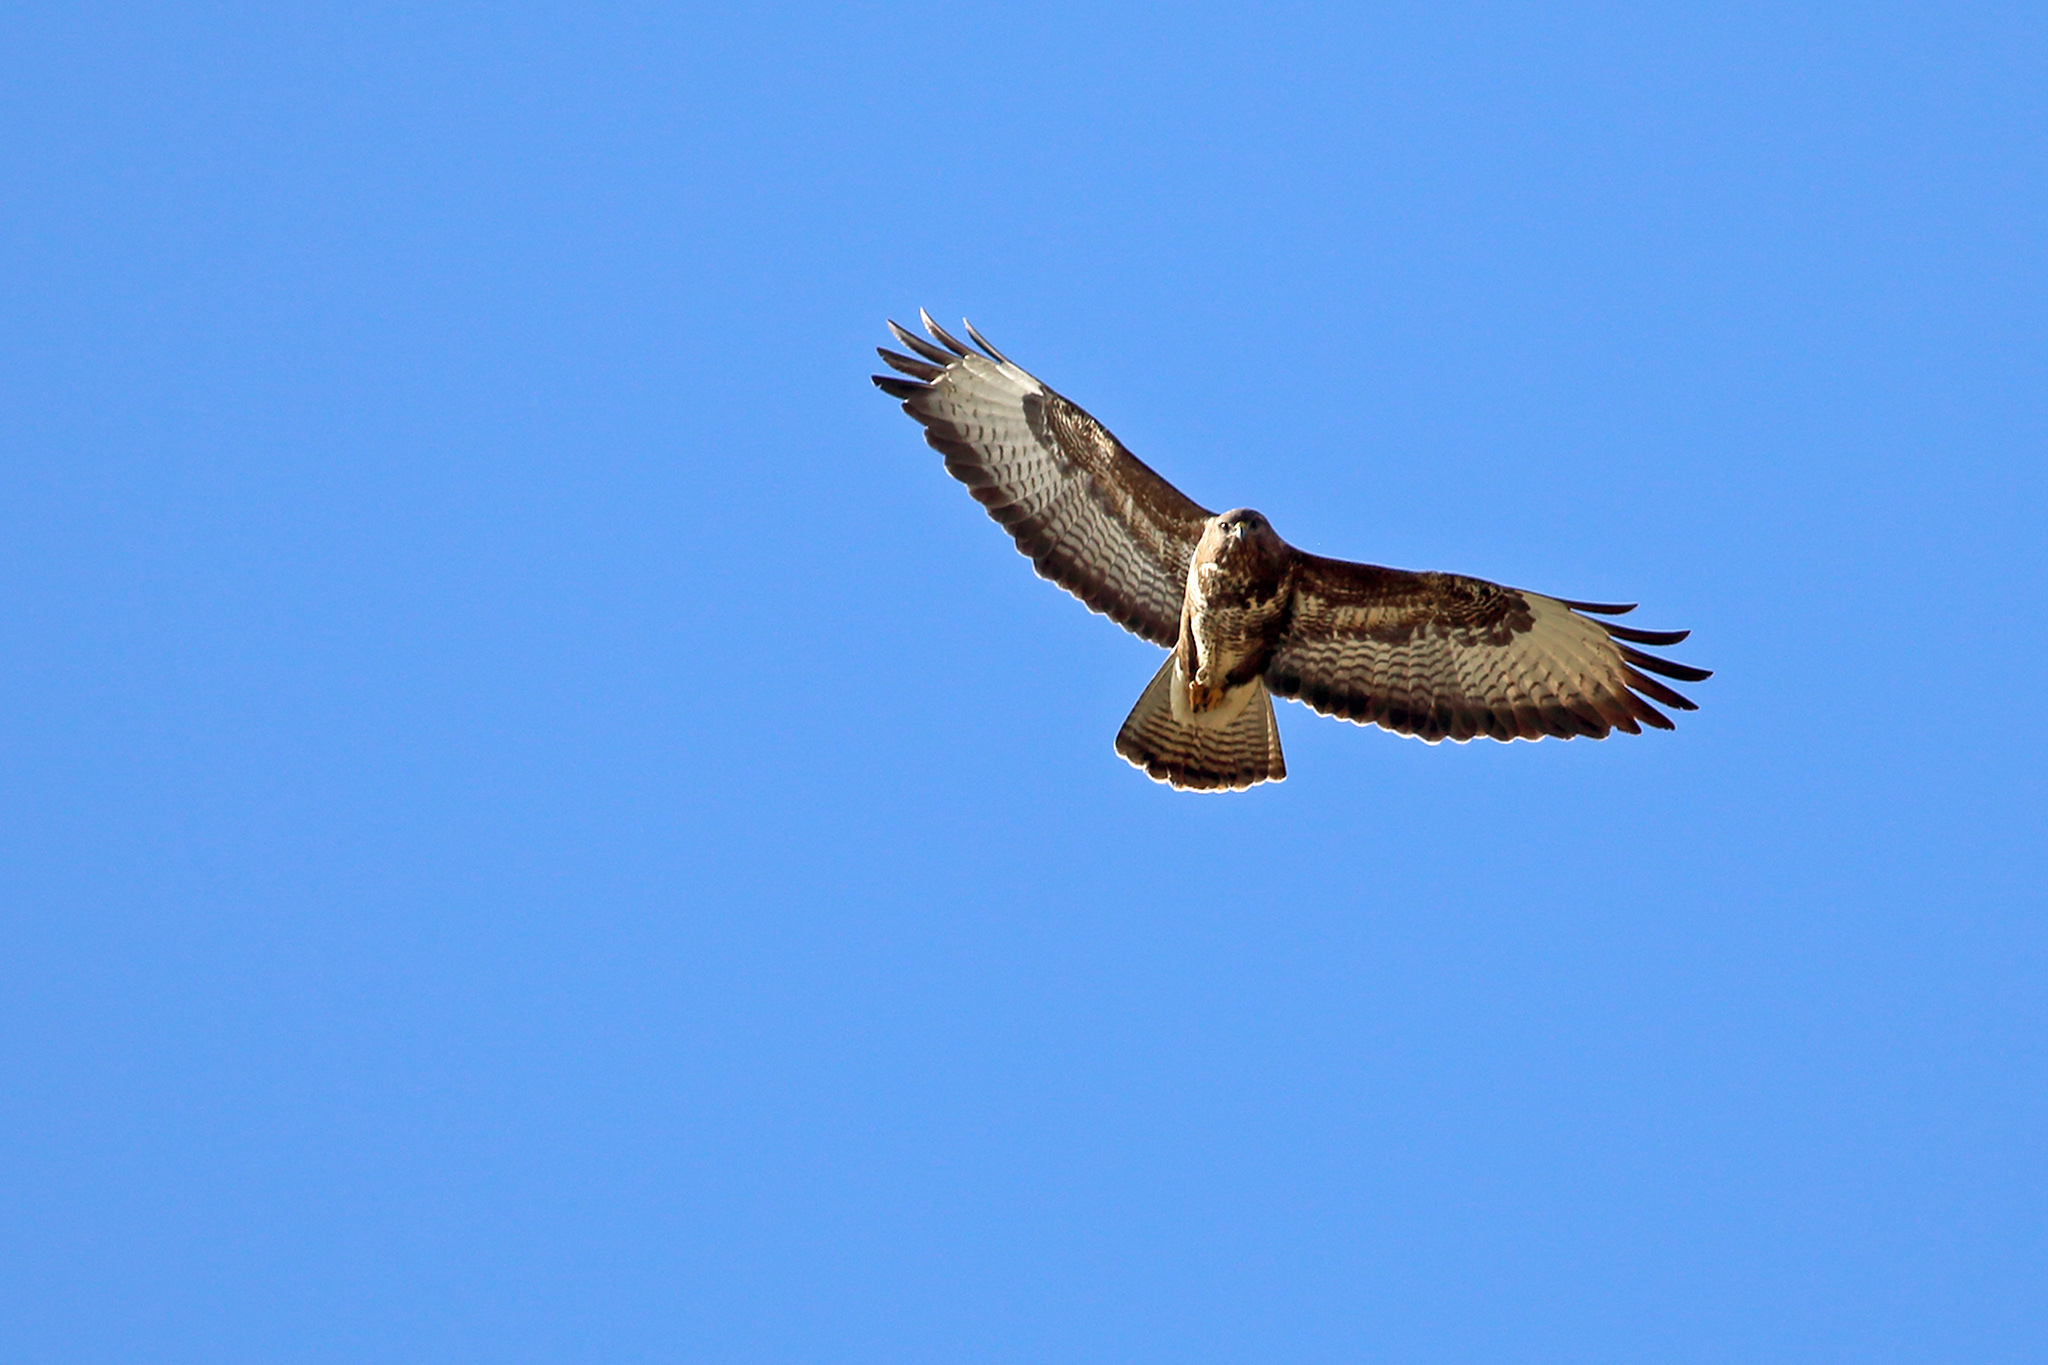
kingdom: Animalia
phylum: Chordata
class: Aves
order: Accipitriformes
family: Accipitridae
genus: Buteo
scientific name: Buteo buteo
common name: Common buzzard
